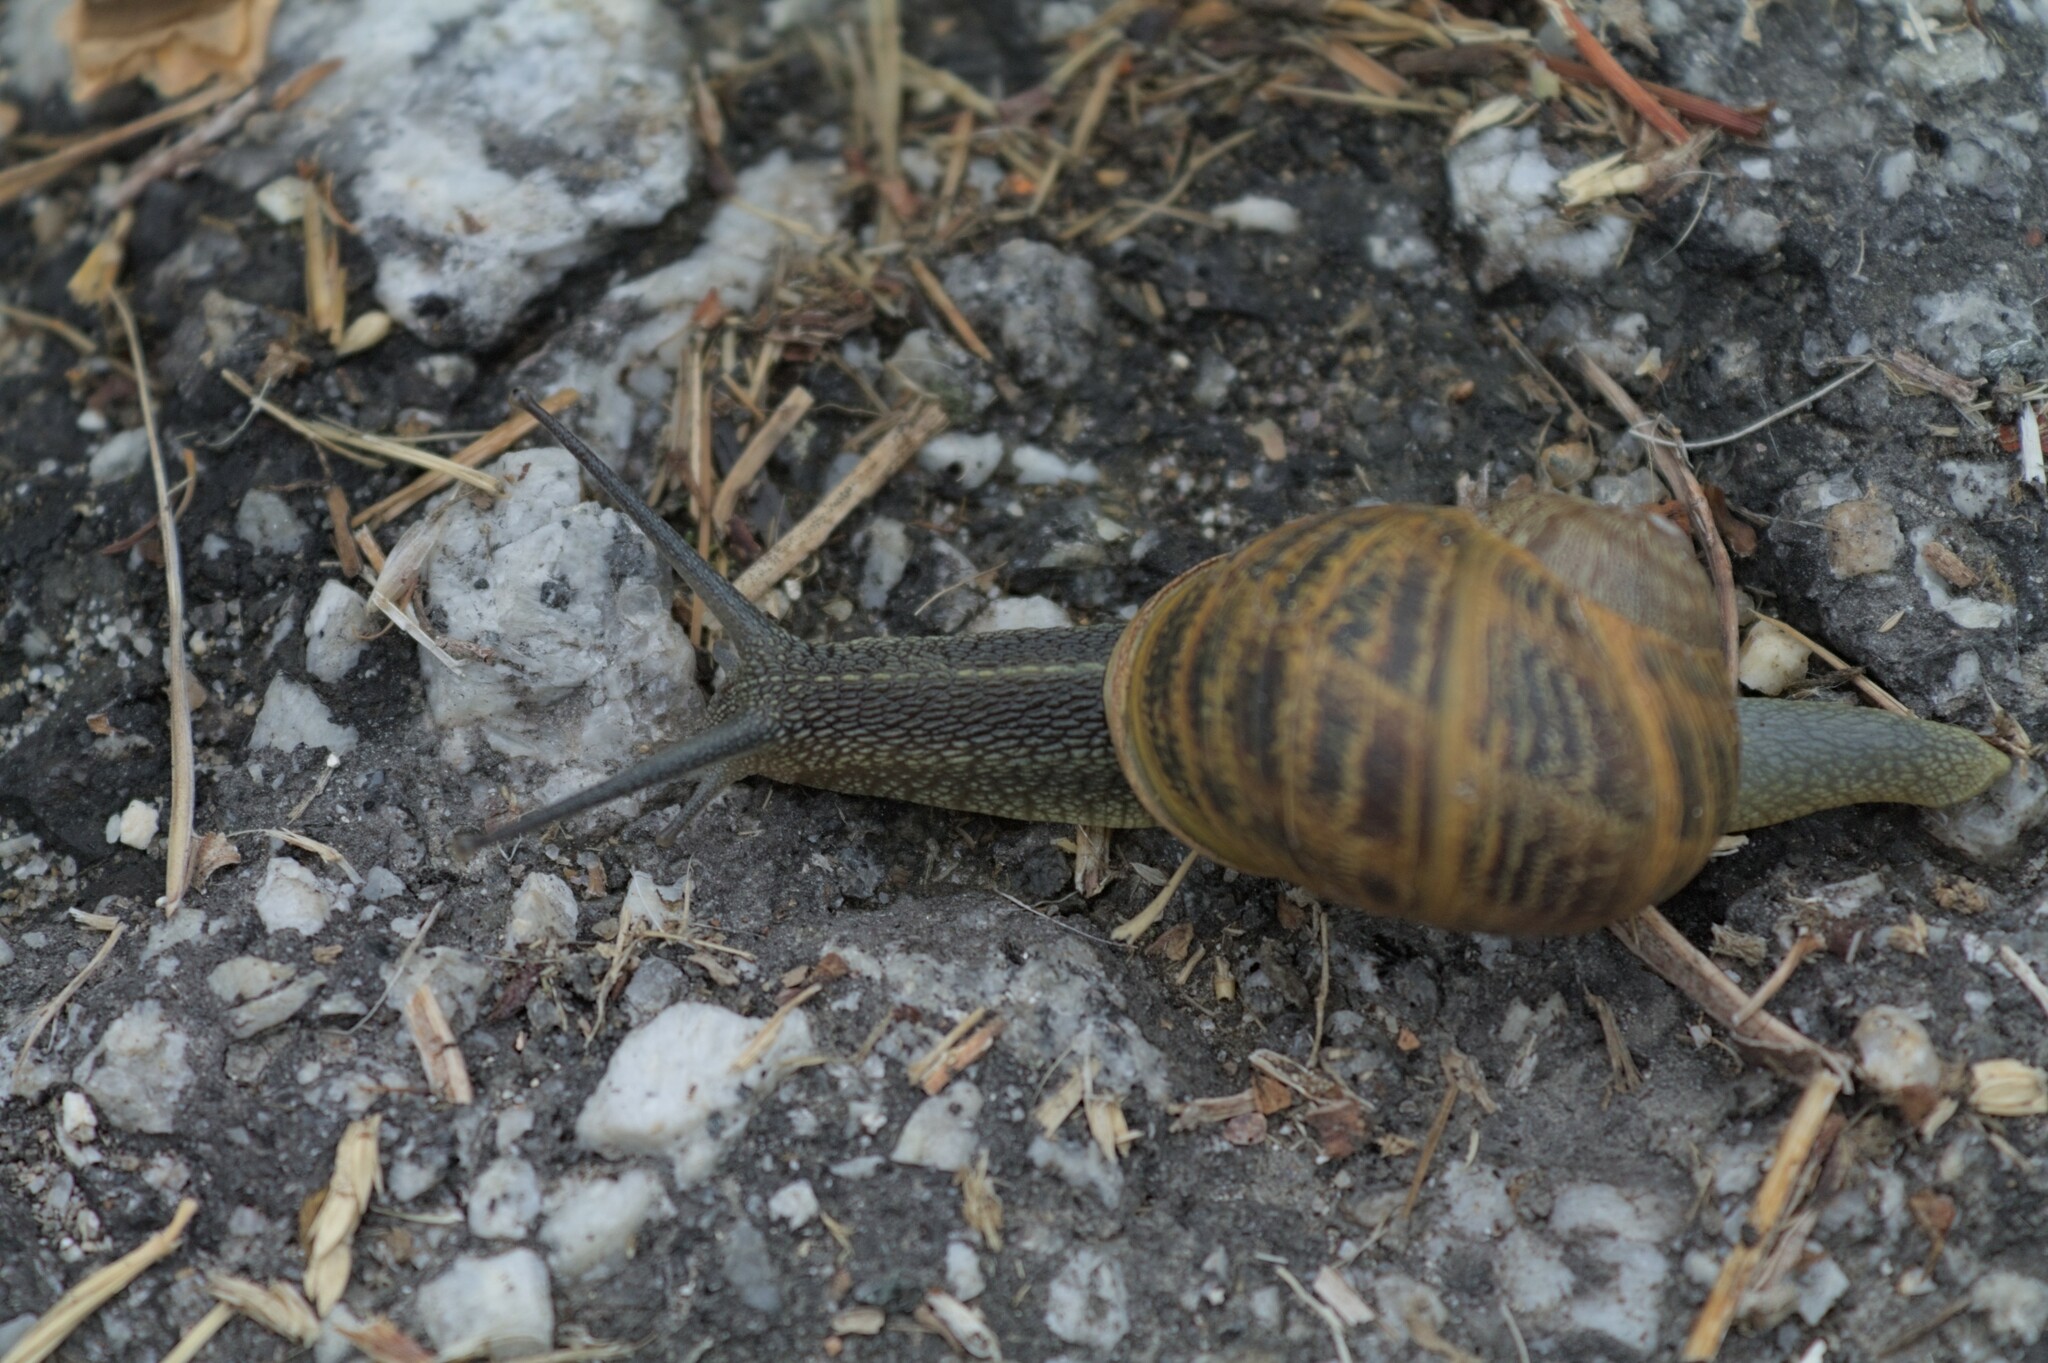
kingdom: Animalia
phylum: Mollusca
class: Gastropoda
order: Stylommatophora
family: Helicidae
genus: Cornu
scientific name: Cornu aspersum
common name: Brown garden snail
